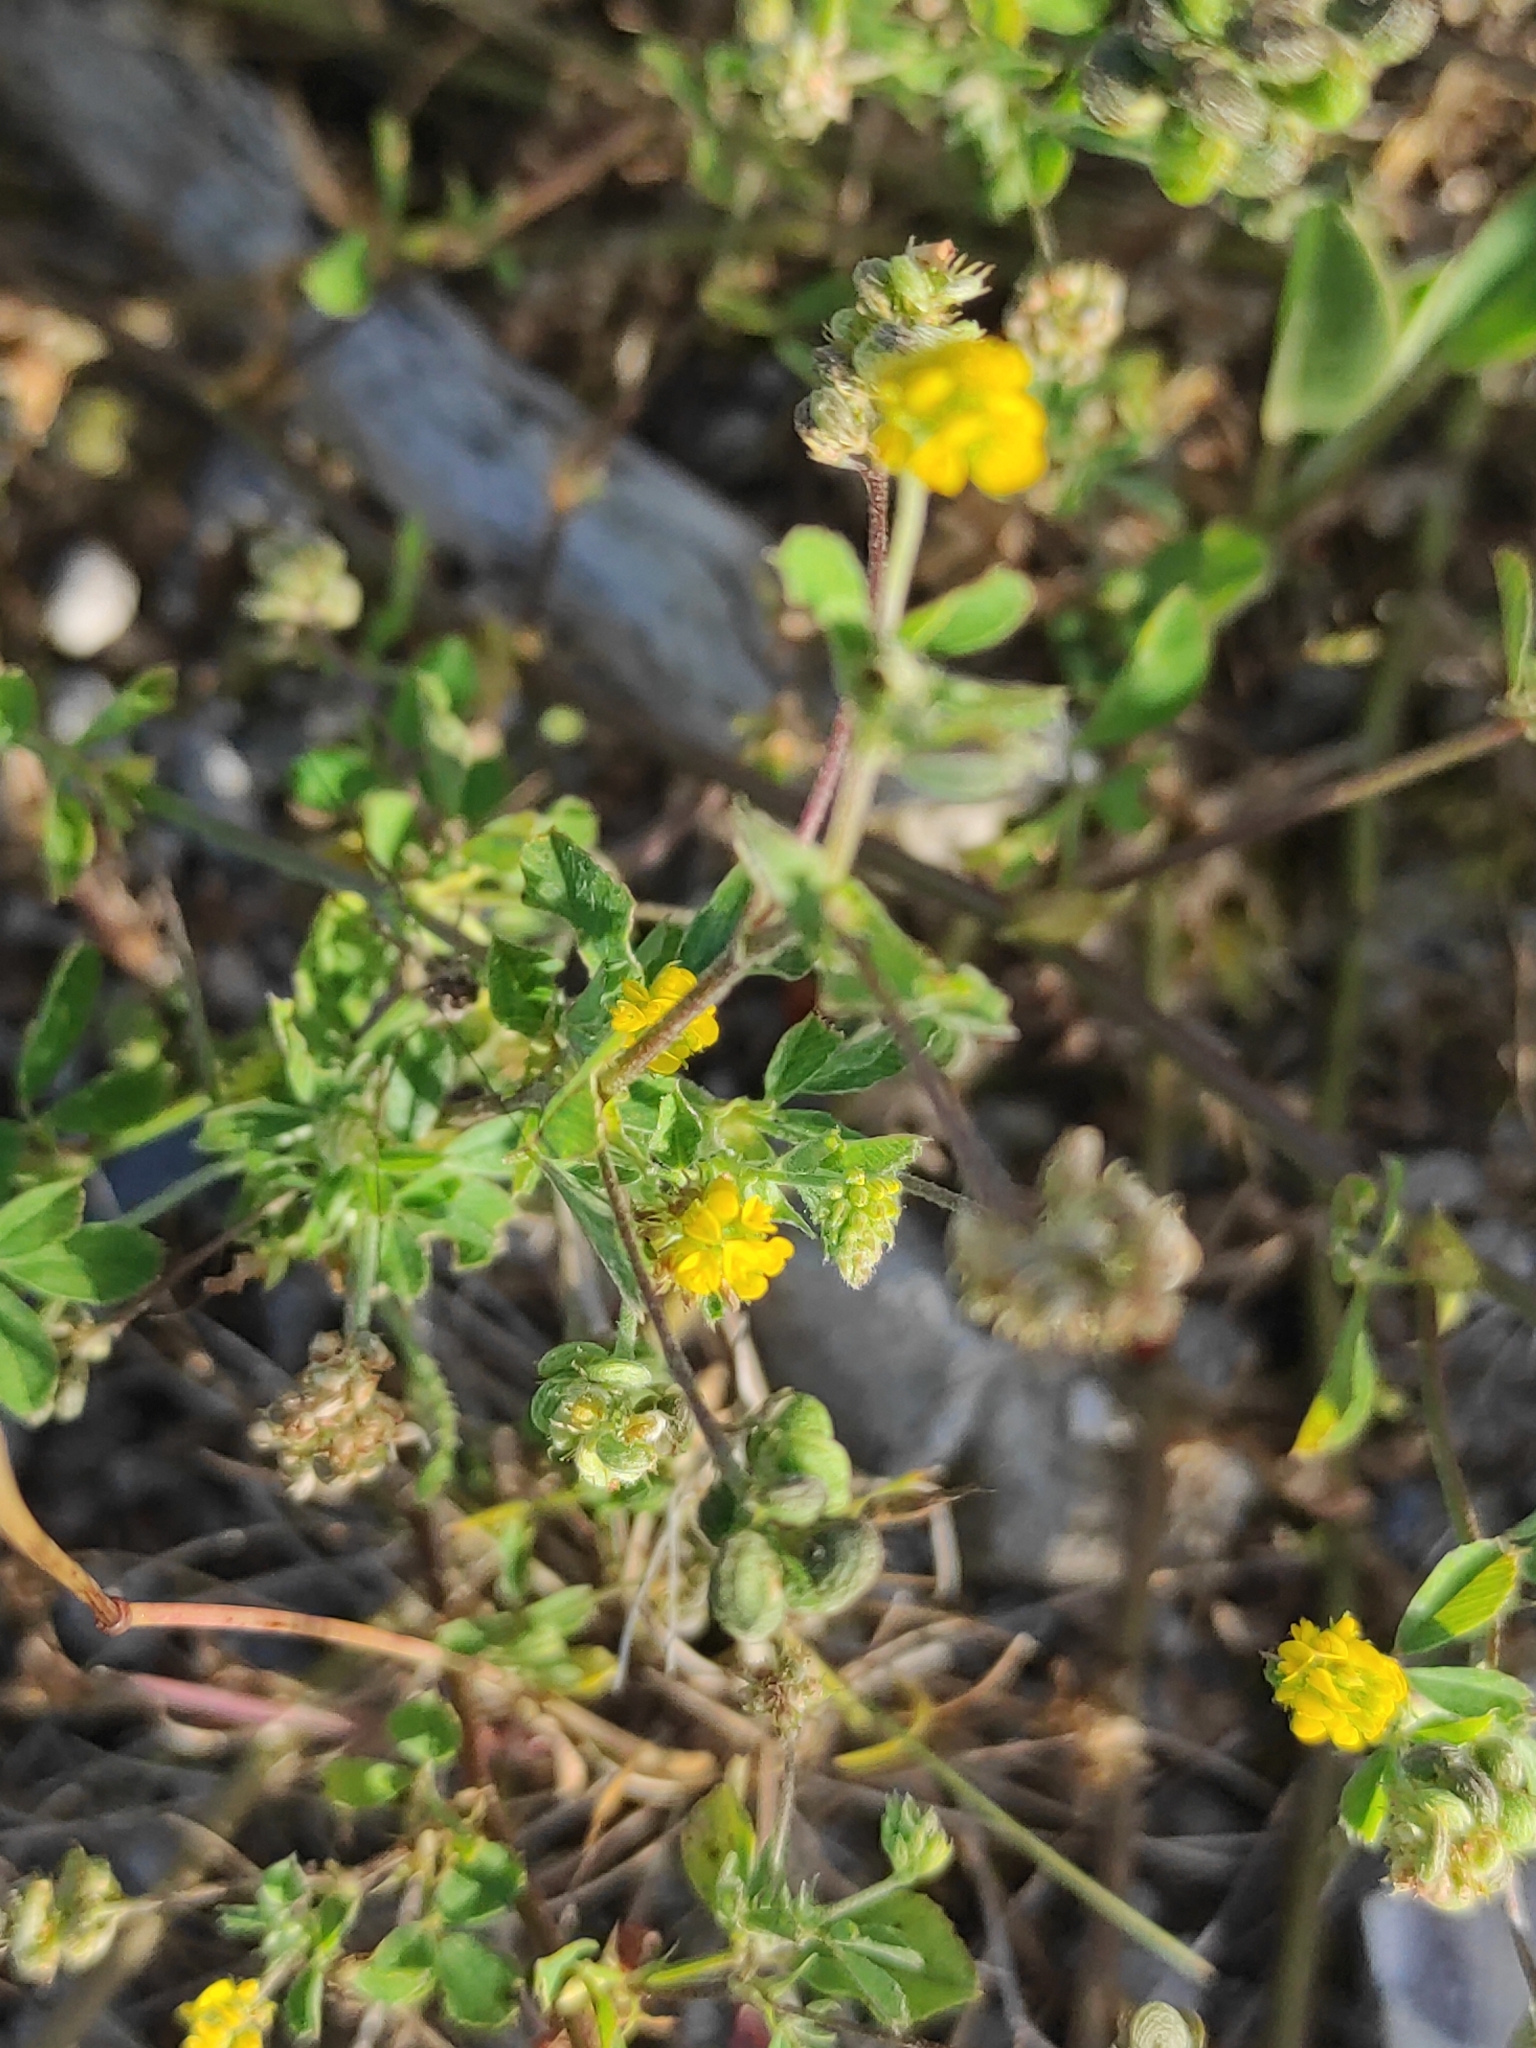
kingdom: Plantae
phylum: Tracheophyta
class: Magnoliopsida
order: Fabales
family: Fabaceae
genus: Medicago
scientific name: Medicago lupulina
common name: Black medick
